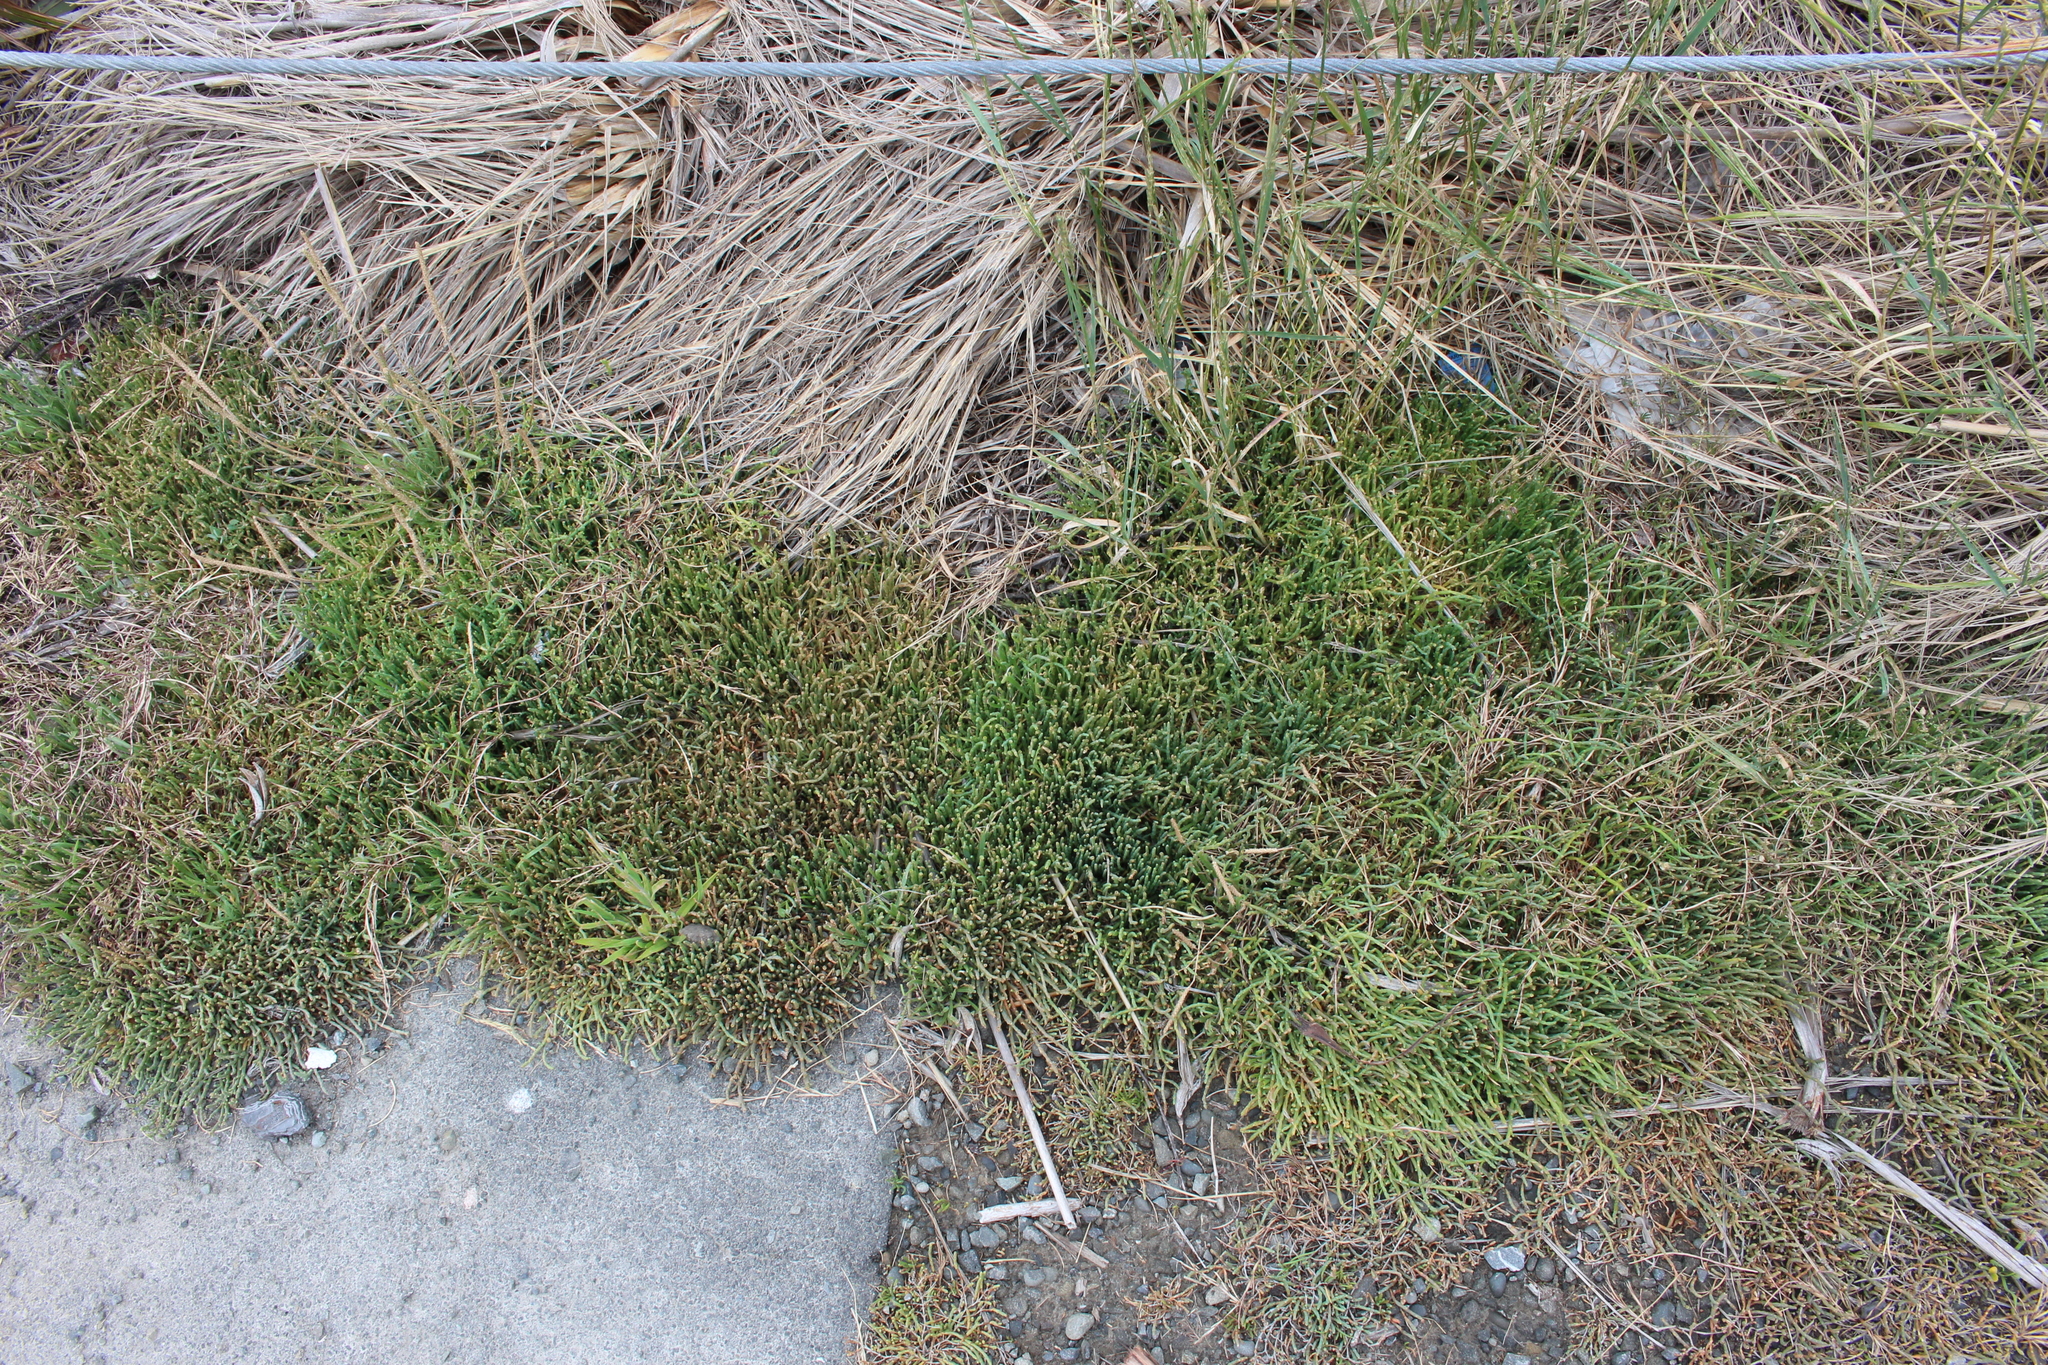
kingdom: Plantae
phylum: Tracheophyta
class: Magnoliopsida
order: Caryophyllales
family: Amaranthaceae
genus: Salicornia
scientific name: Salicornia quinqueflora
